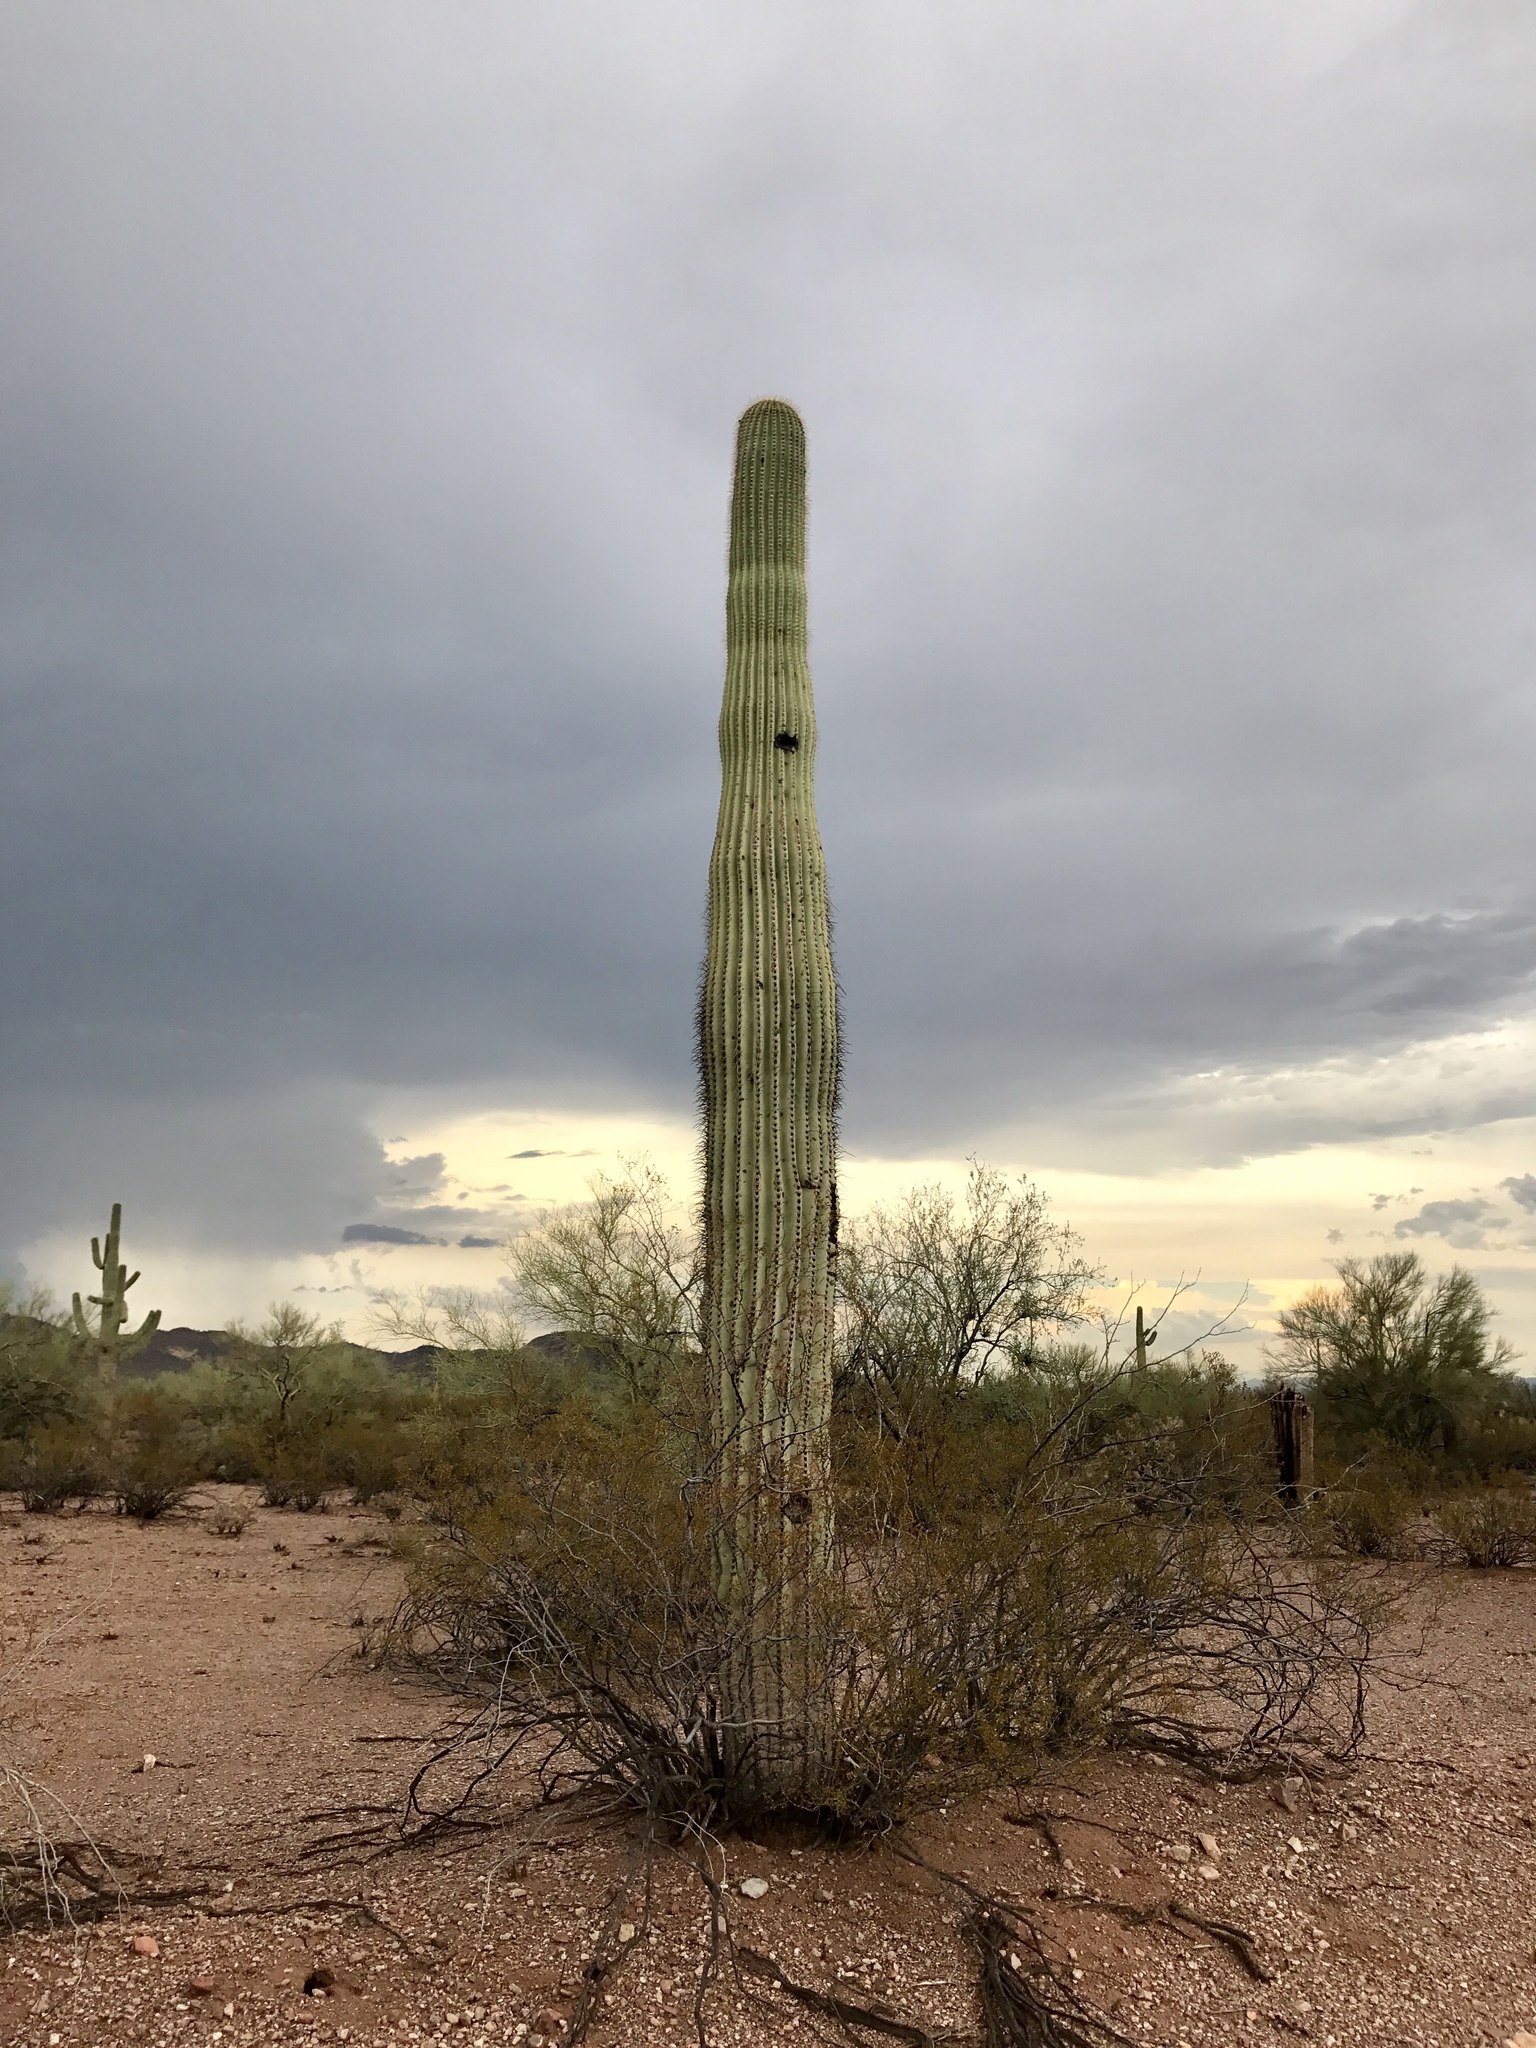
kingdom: Plantae
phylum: Tracheophyta
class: Magnoliopsida
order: Caryophyllales
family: Cactaceae
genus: Carnegiea
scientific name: Carnegiea gigantea
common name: Saguaro
